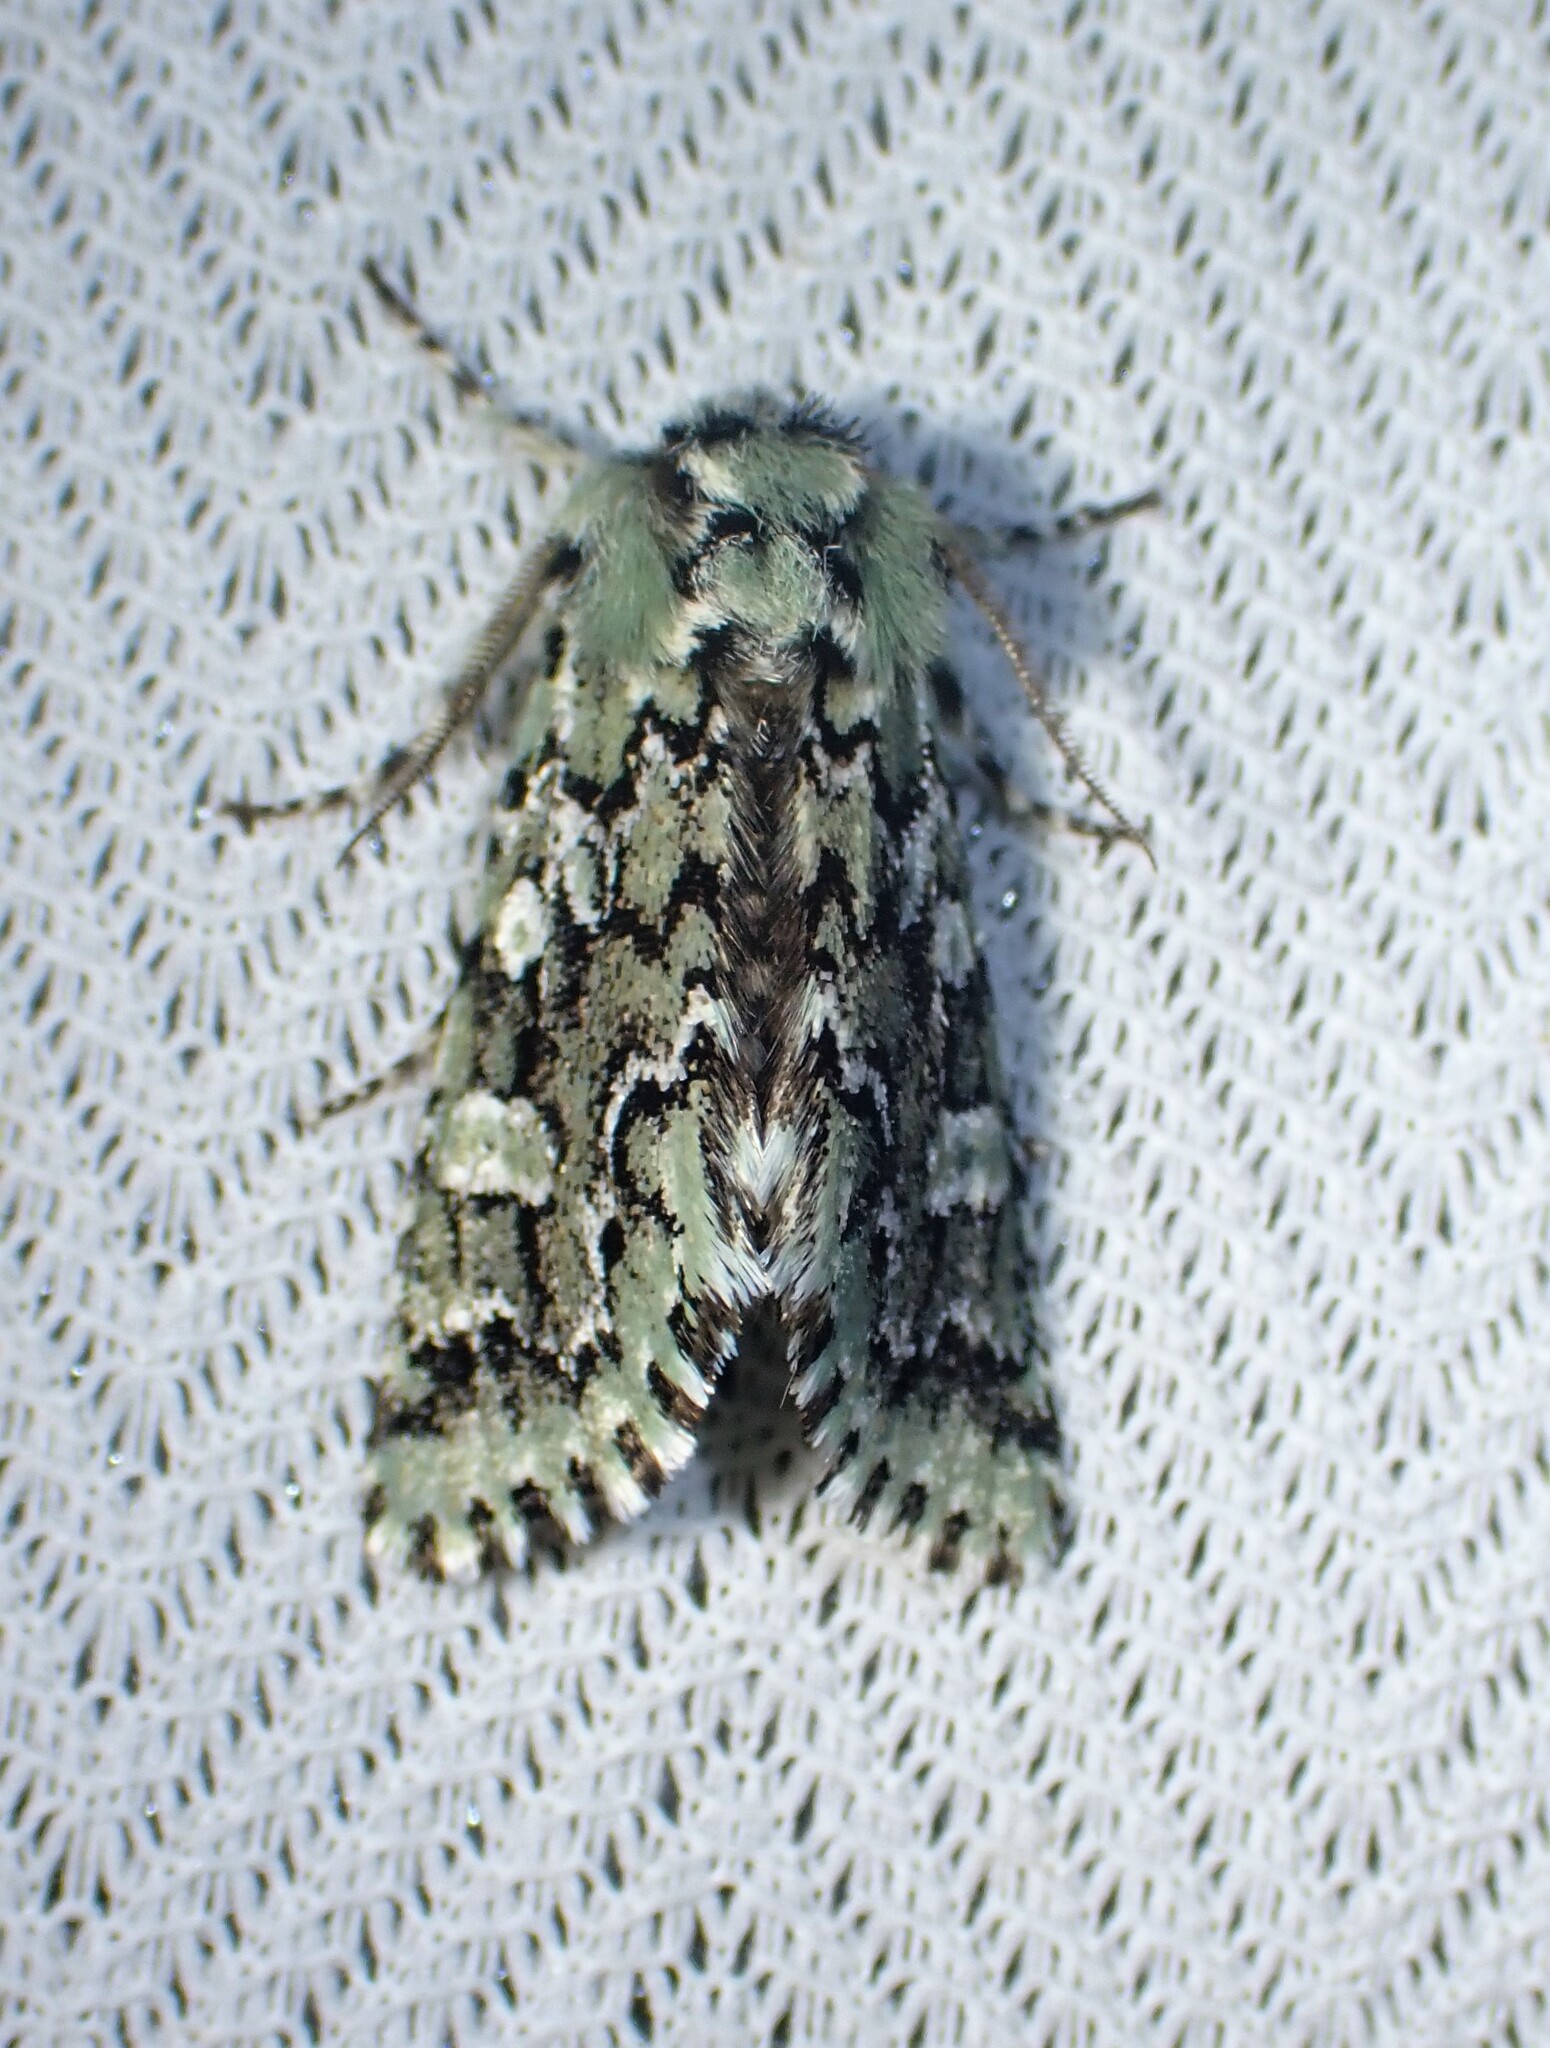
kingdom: Animalia
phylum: Arthropoda
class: Insecta
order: Lepidoptera
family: Noctuidae
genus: Feralia
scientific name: Feralia jocosa
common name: Joker
